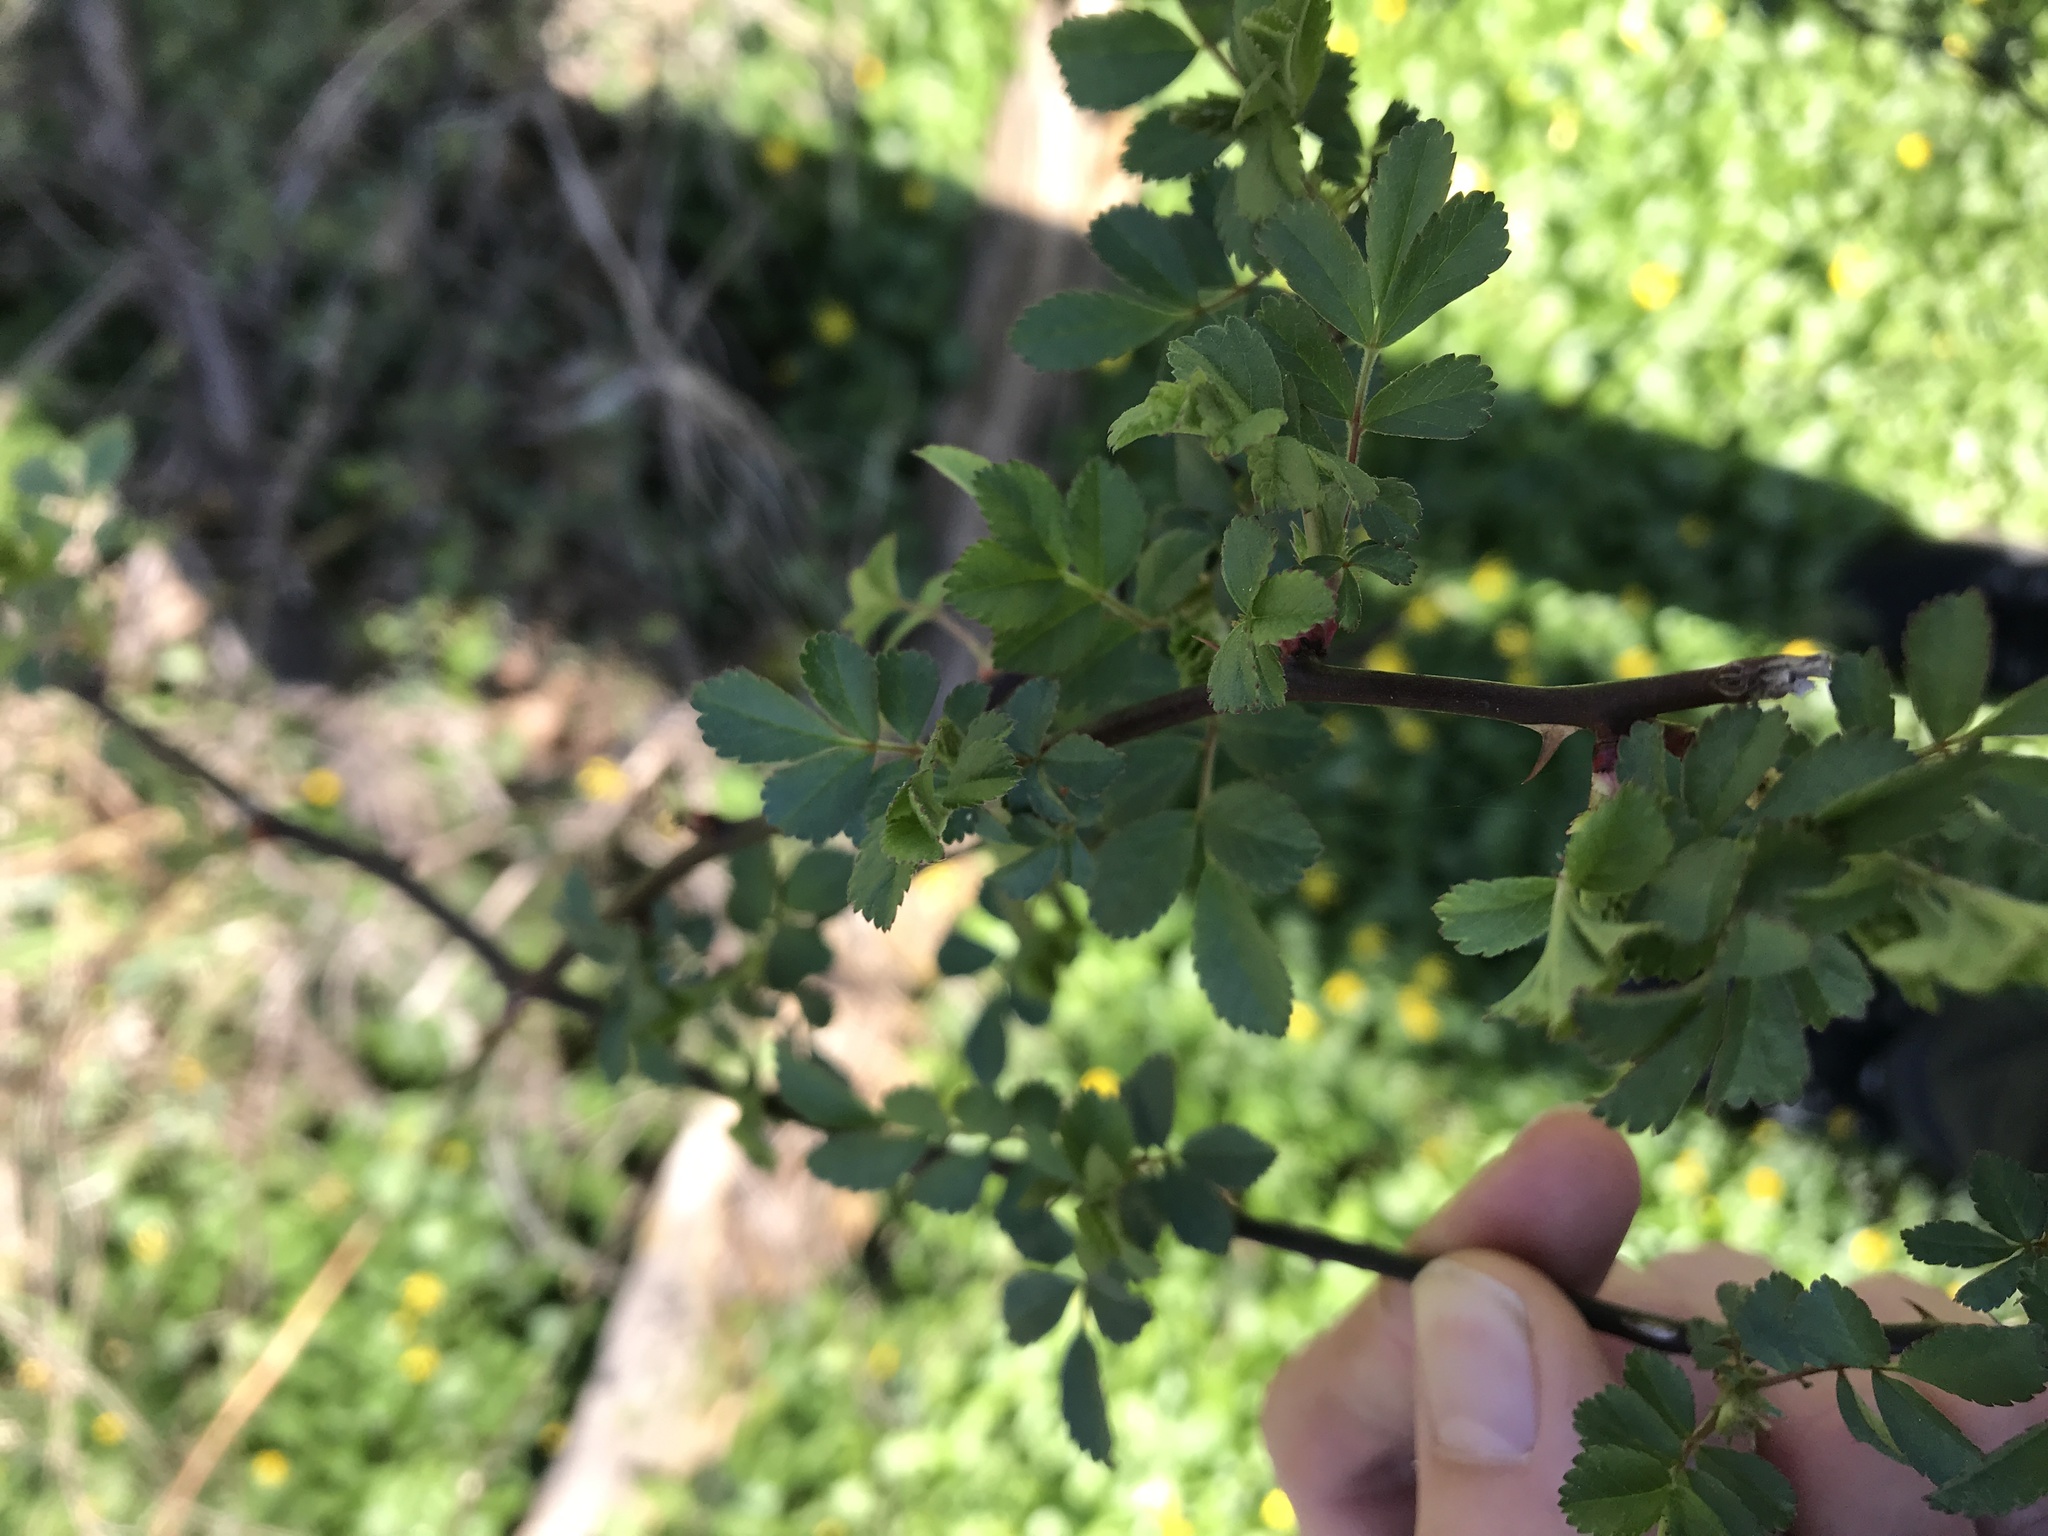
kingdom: Plantae
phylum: Tracheophyta
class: Magnoliopsida
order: Rosales
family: Rosaceae
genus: Rosa
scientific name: Rosa multiflora
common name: Multiflora rose
